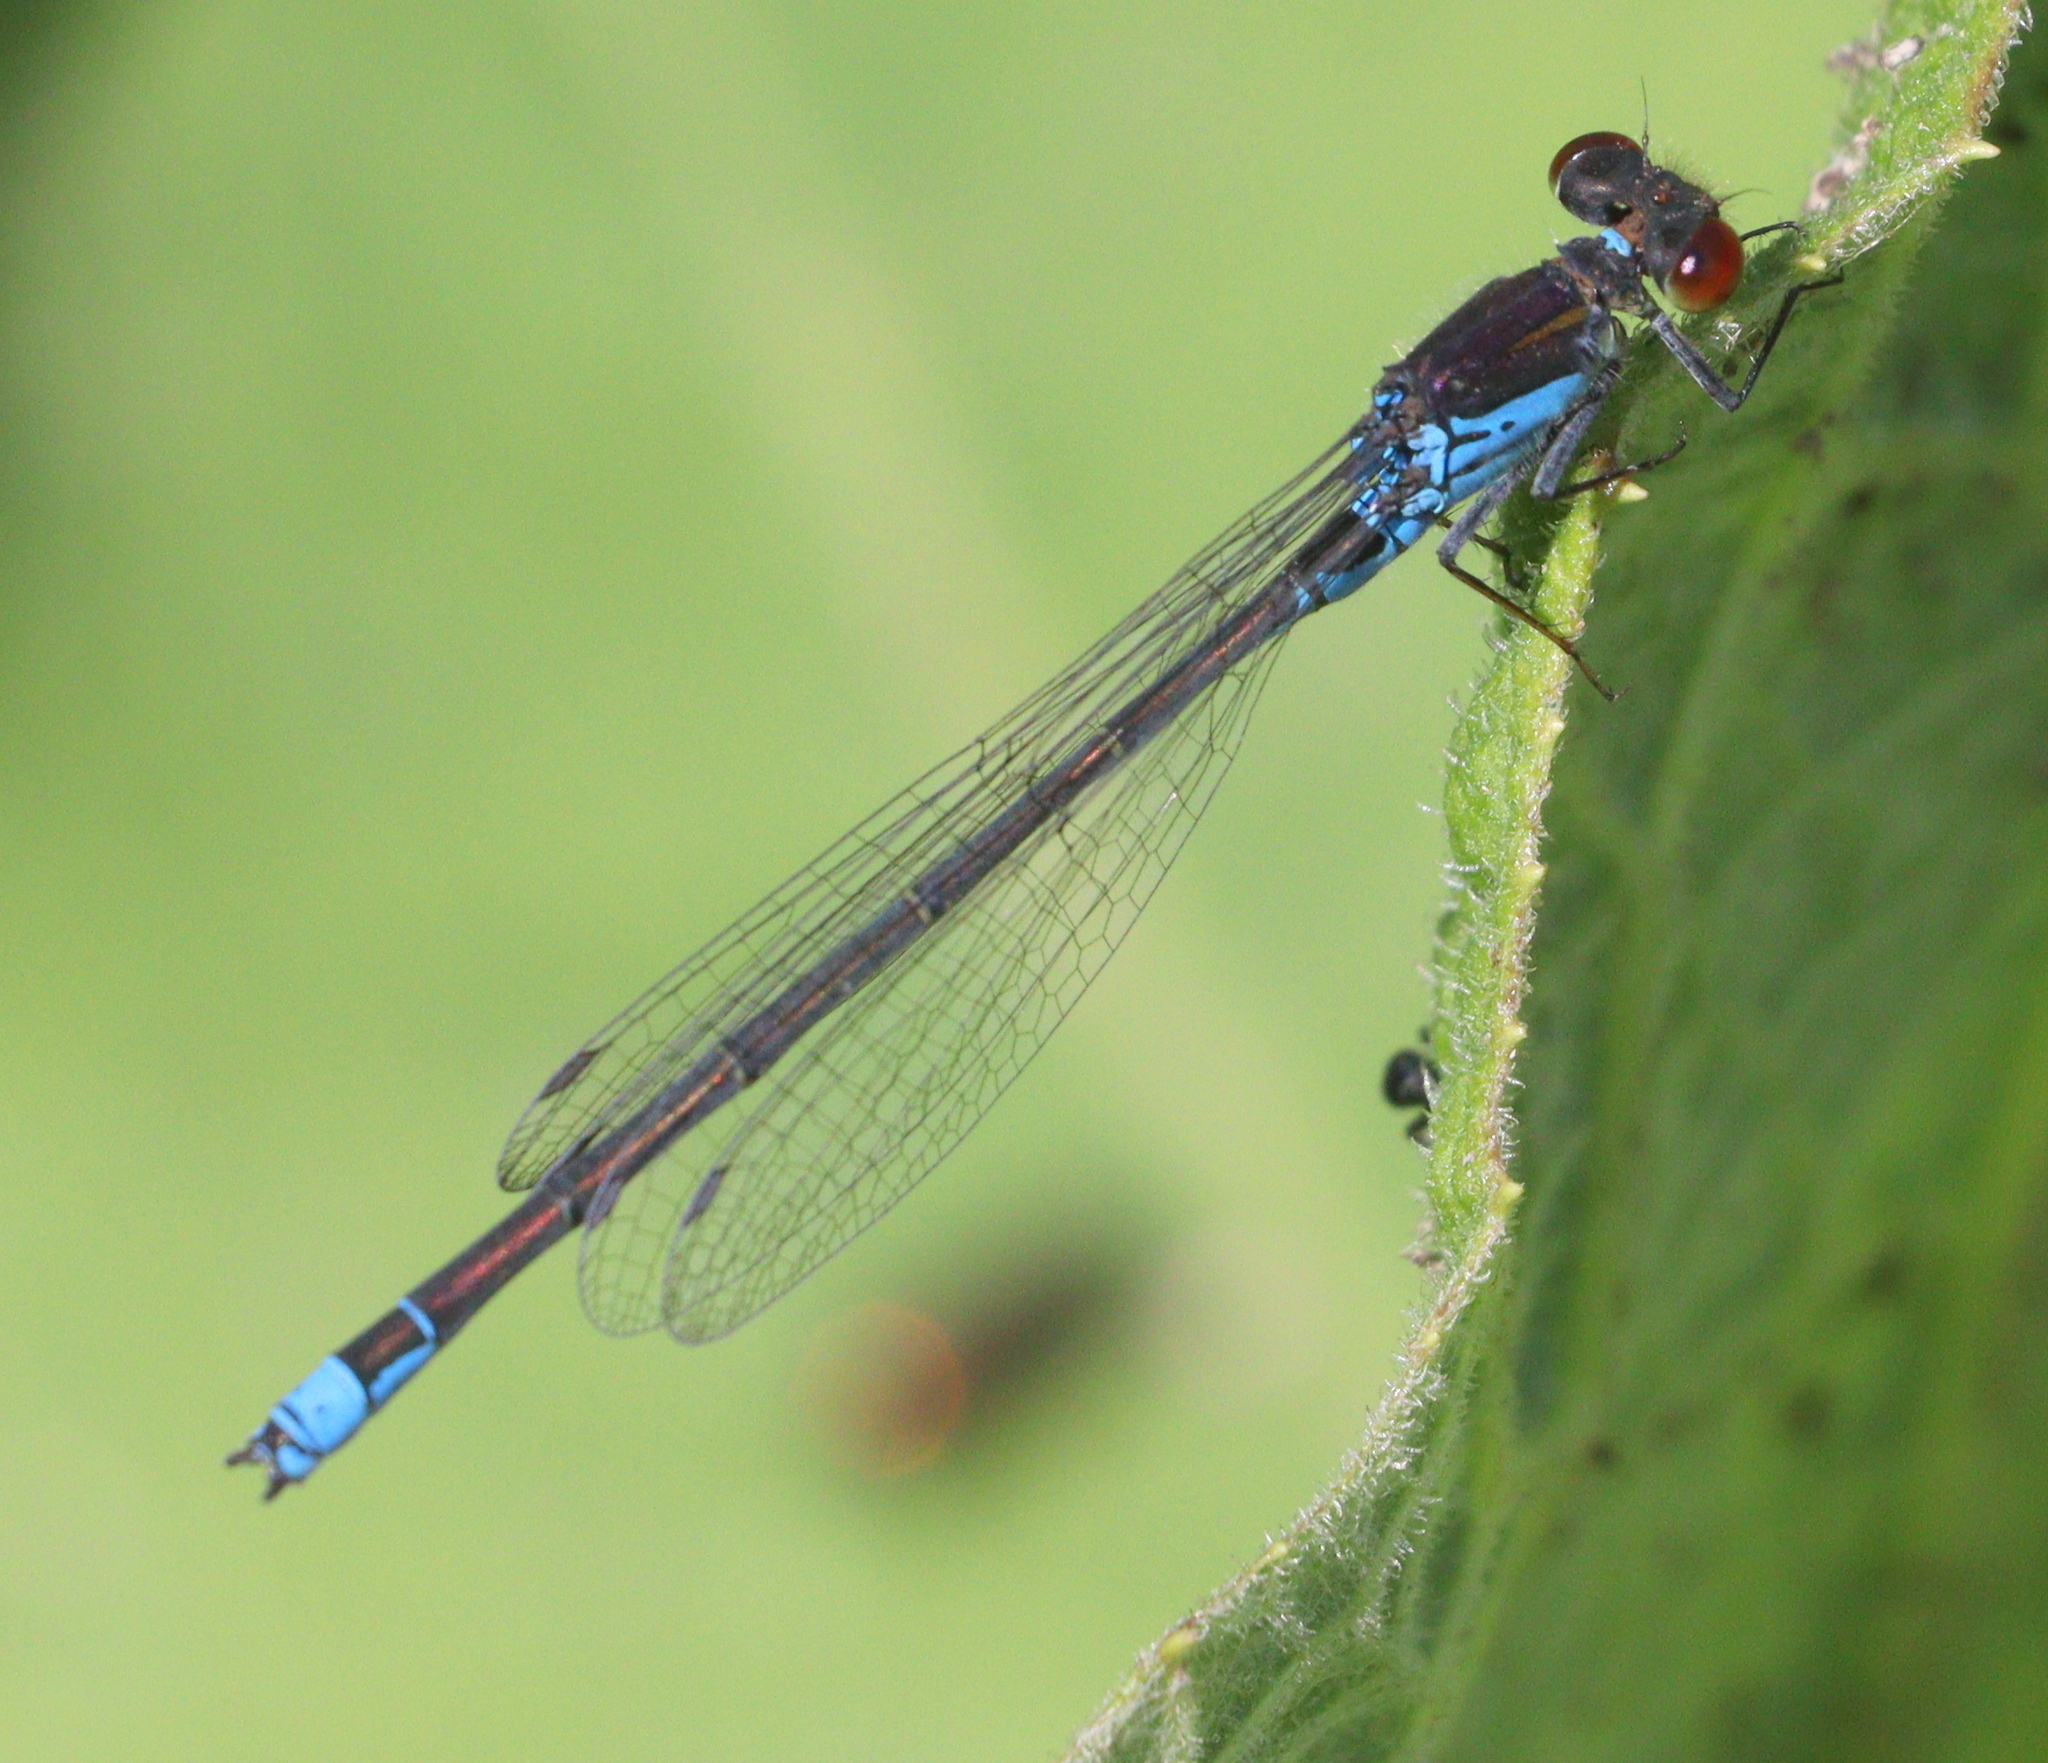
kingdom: Animalia
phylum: Arthropoda
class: Insecta
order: Odonata
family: Coenagrionidae
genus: Erythromma
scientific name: Erythromma viridulum
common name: Small red-eyed damselfly
